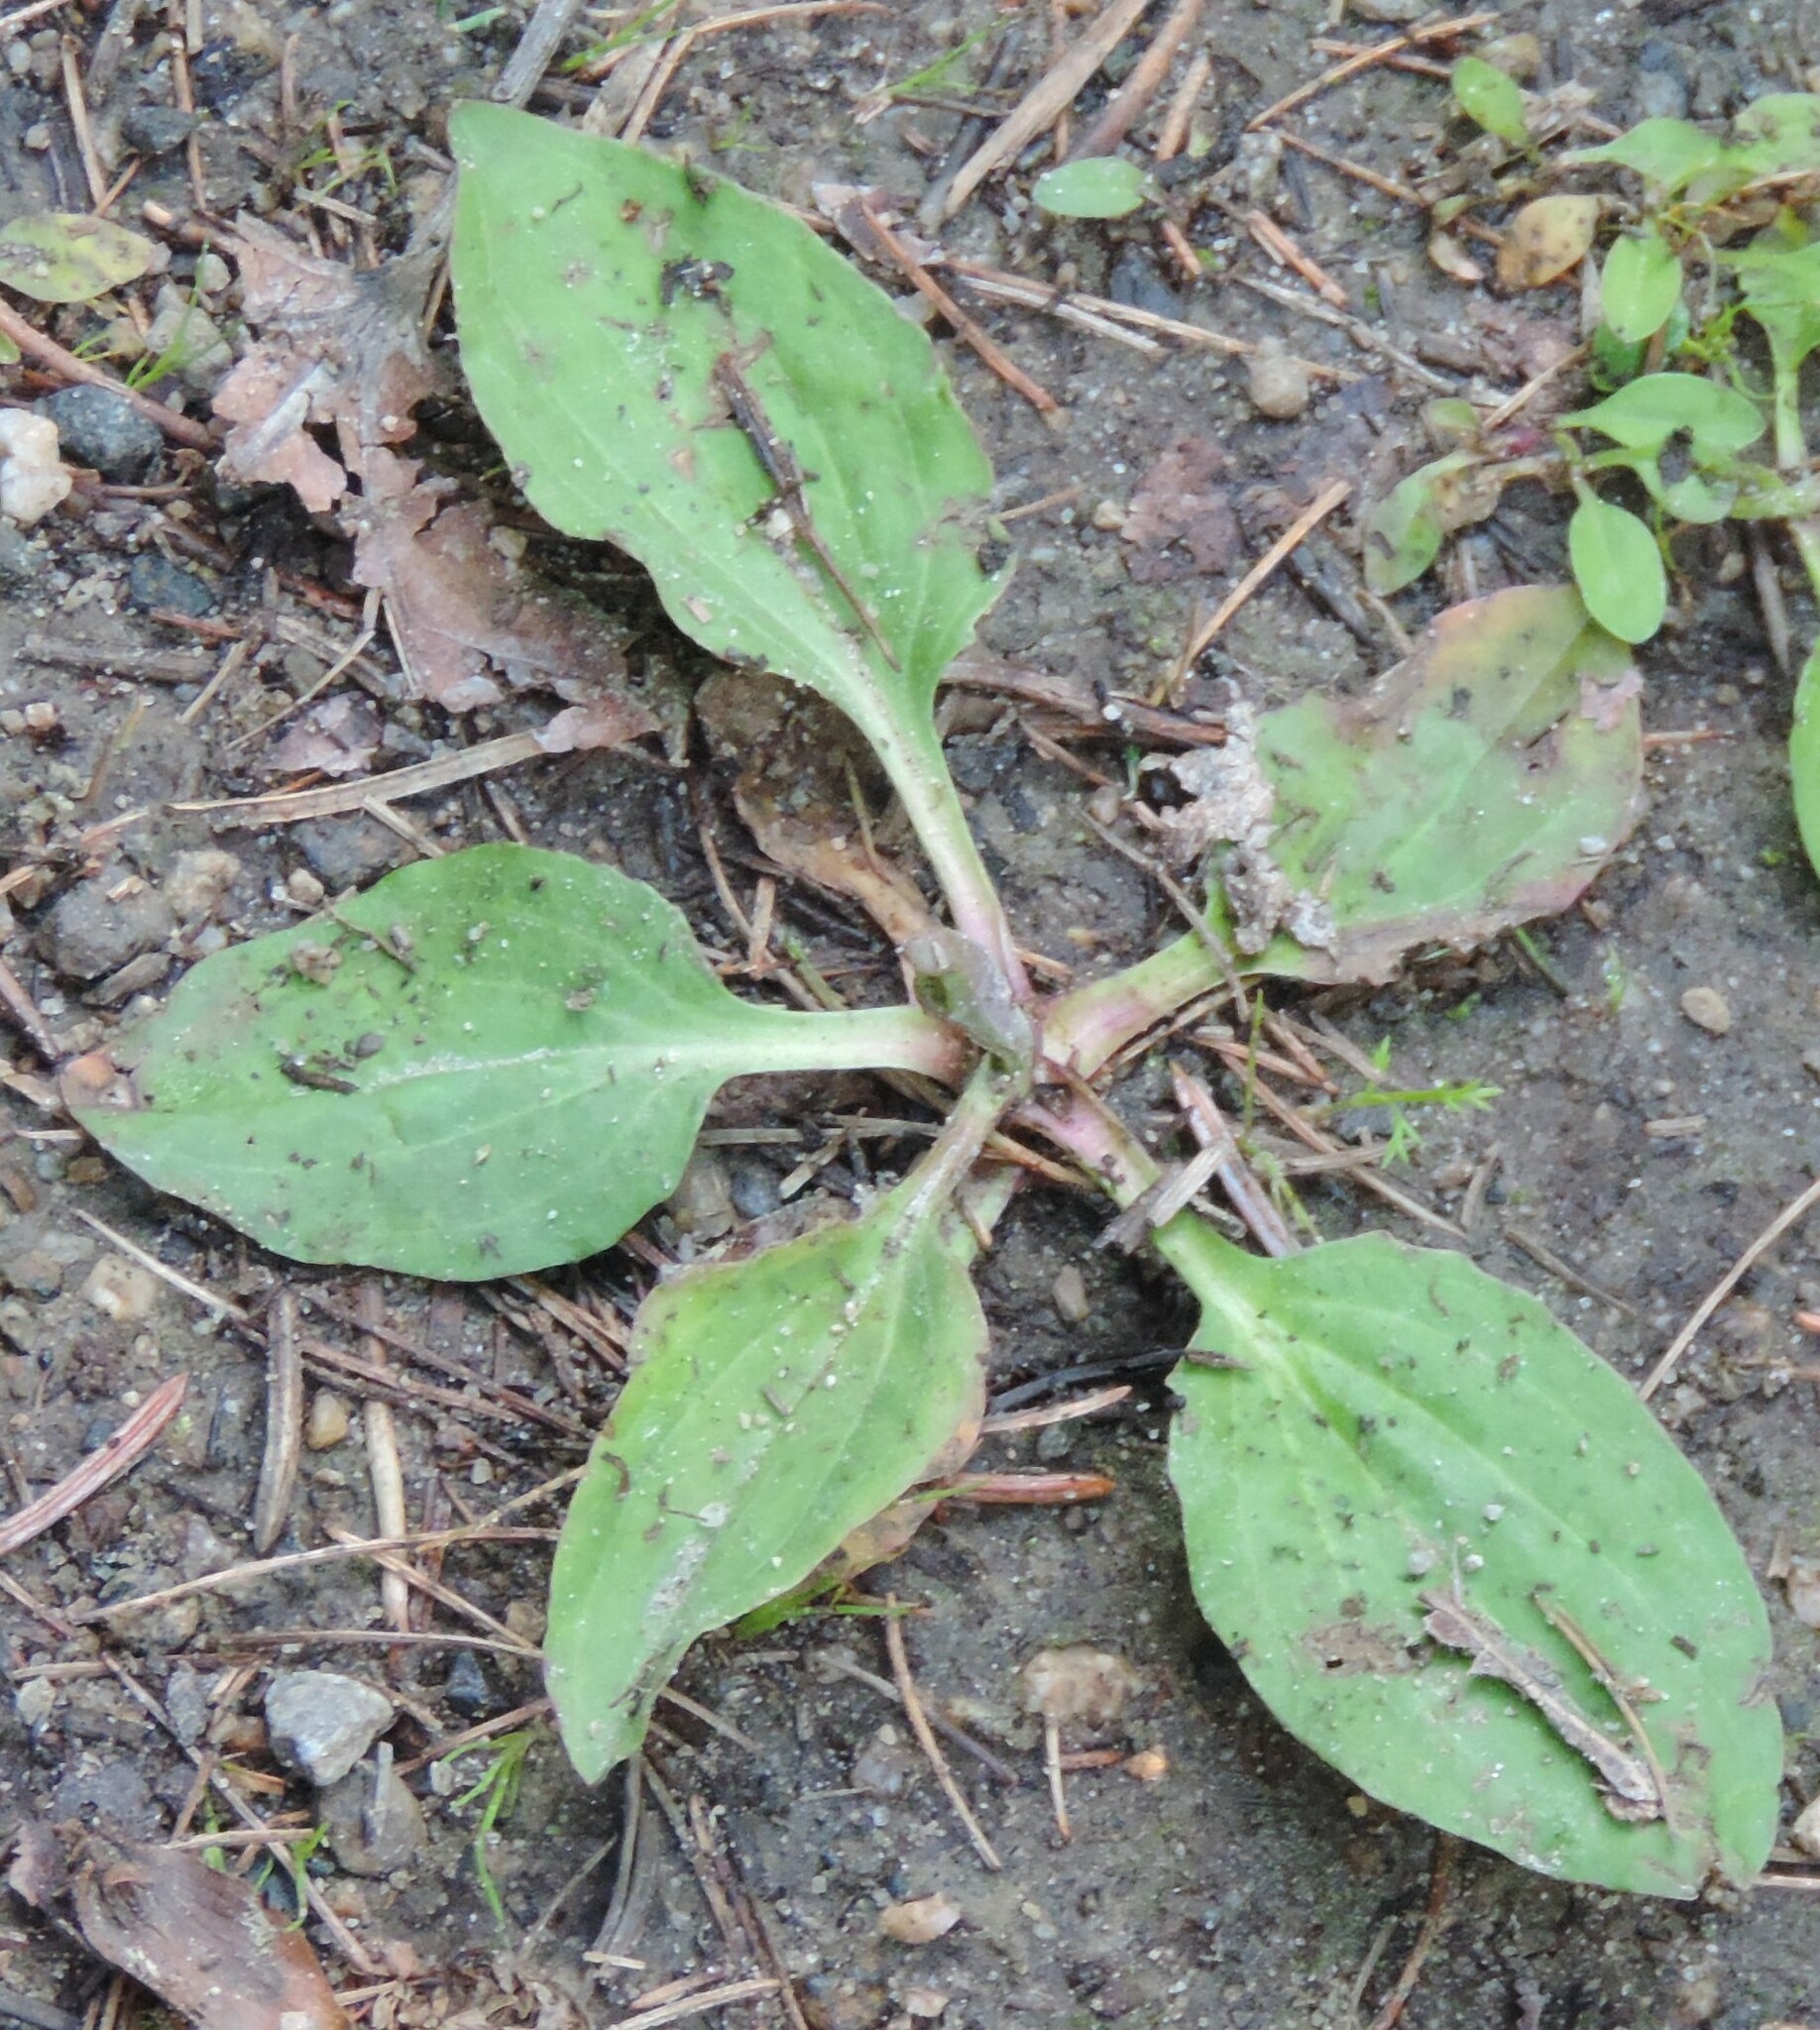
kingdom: Plantae
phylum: Tracheophyta
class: Magnoliopsida
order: Lamiales
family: Plantaginaceae
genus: Plantago
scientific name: Plantago major
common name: Common plantain
